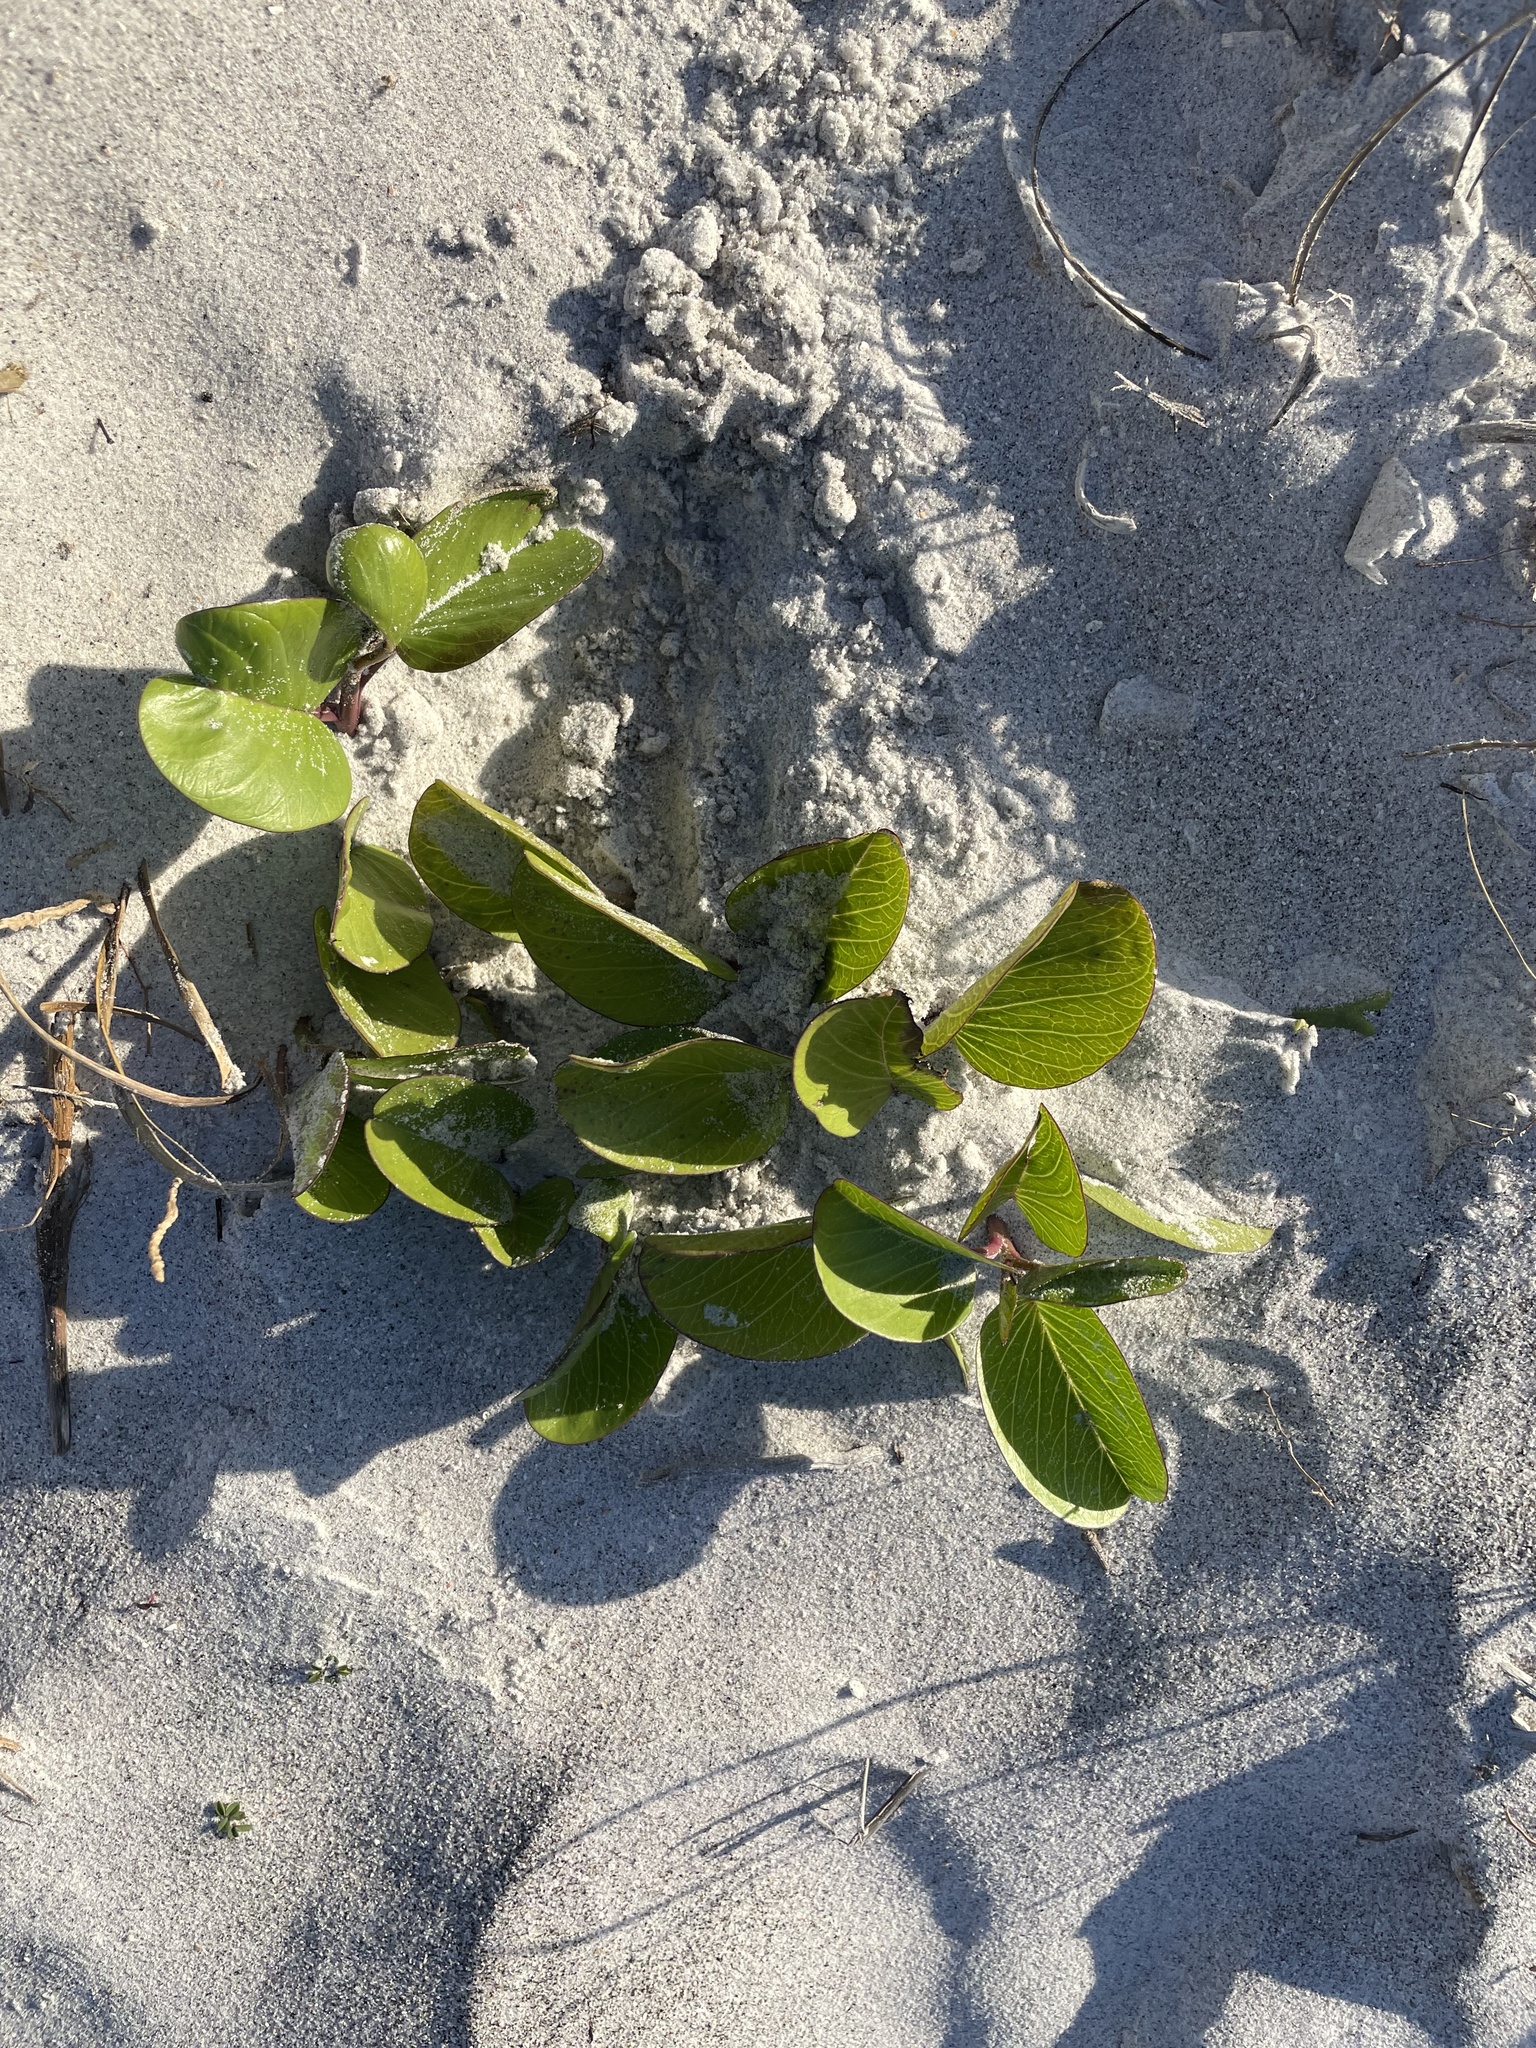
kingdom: Plantae
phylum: Tracheophyta
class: Magnoliopsida
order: Solanales
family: Convolvulaceae
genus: Ipomoea
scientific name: Ipomoea pes-caprae
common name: Beach morning glory
